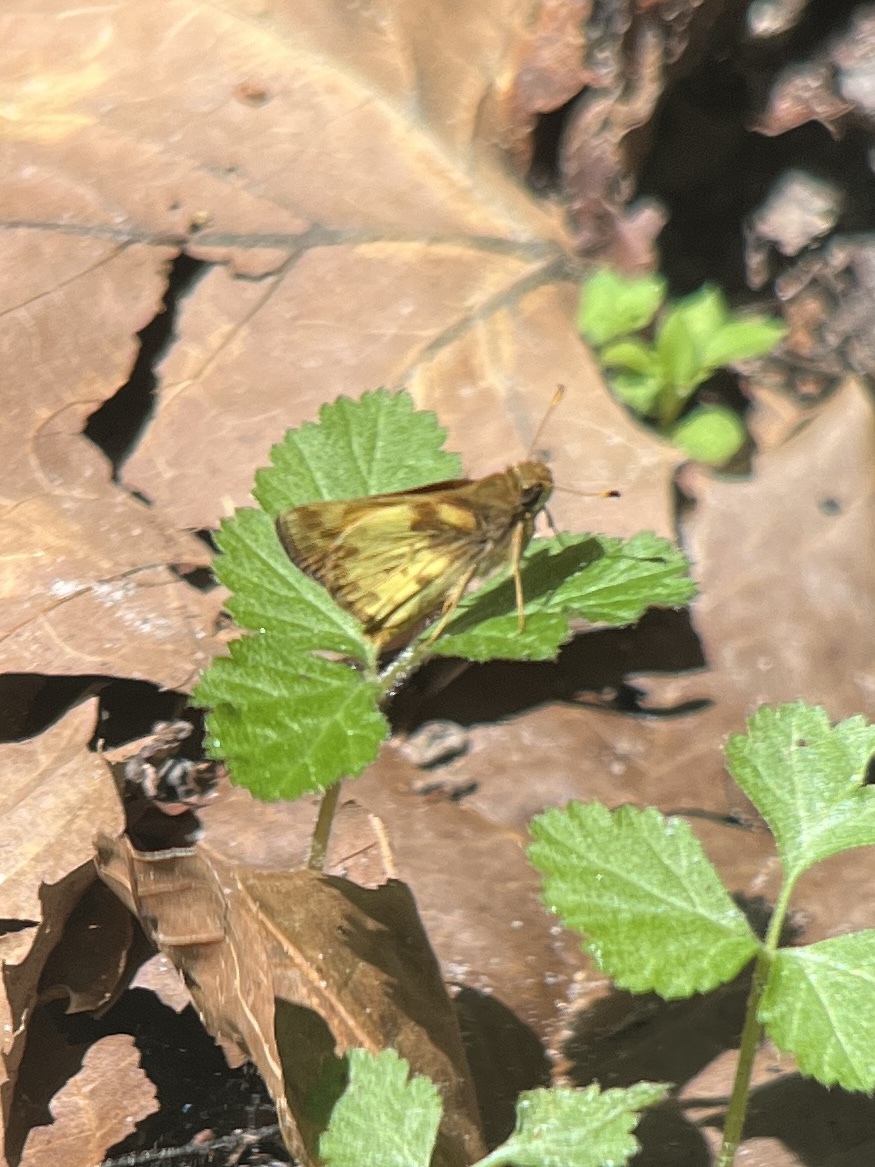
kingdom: Animalia
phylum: Arthropoda
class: Insecta
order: Lepidoptera
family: Hesperiidae
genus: Lon
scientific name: Lon zabulon
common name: Zabulon skipper
